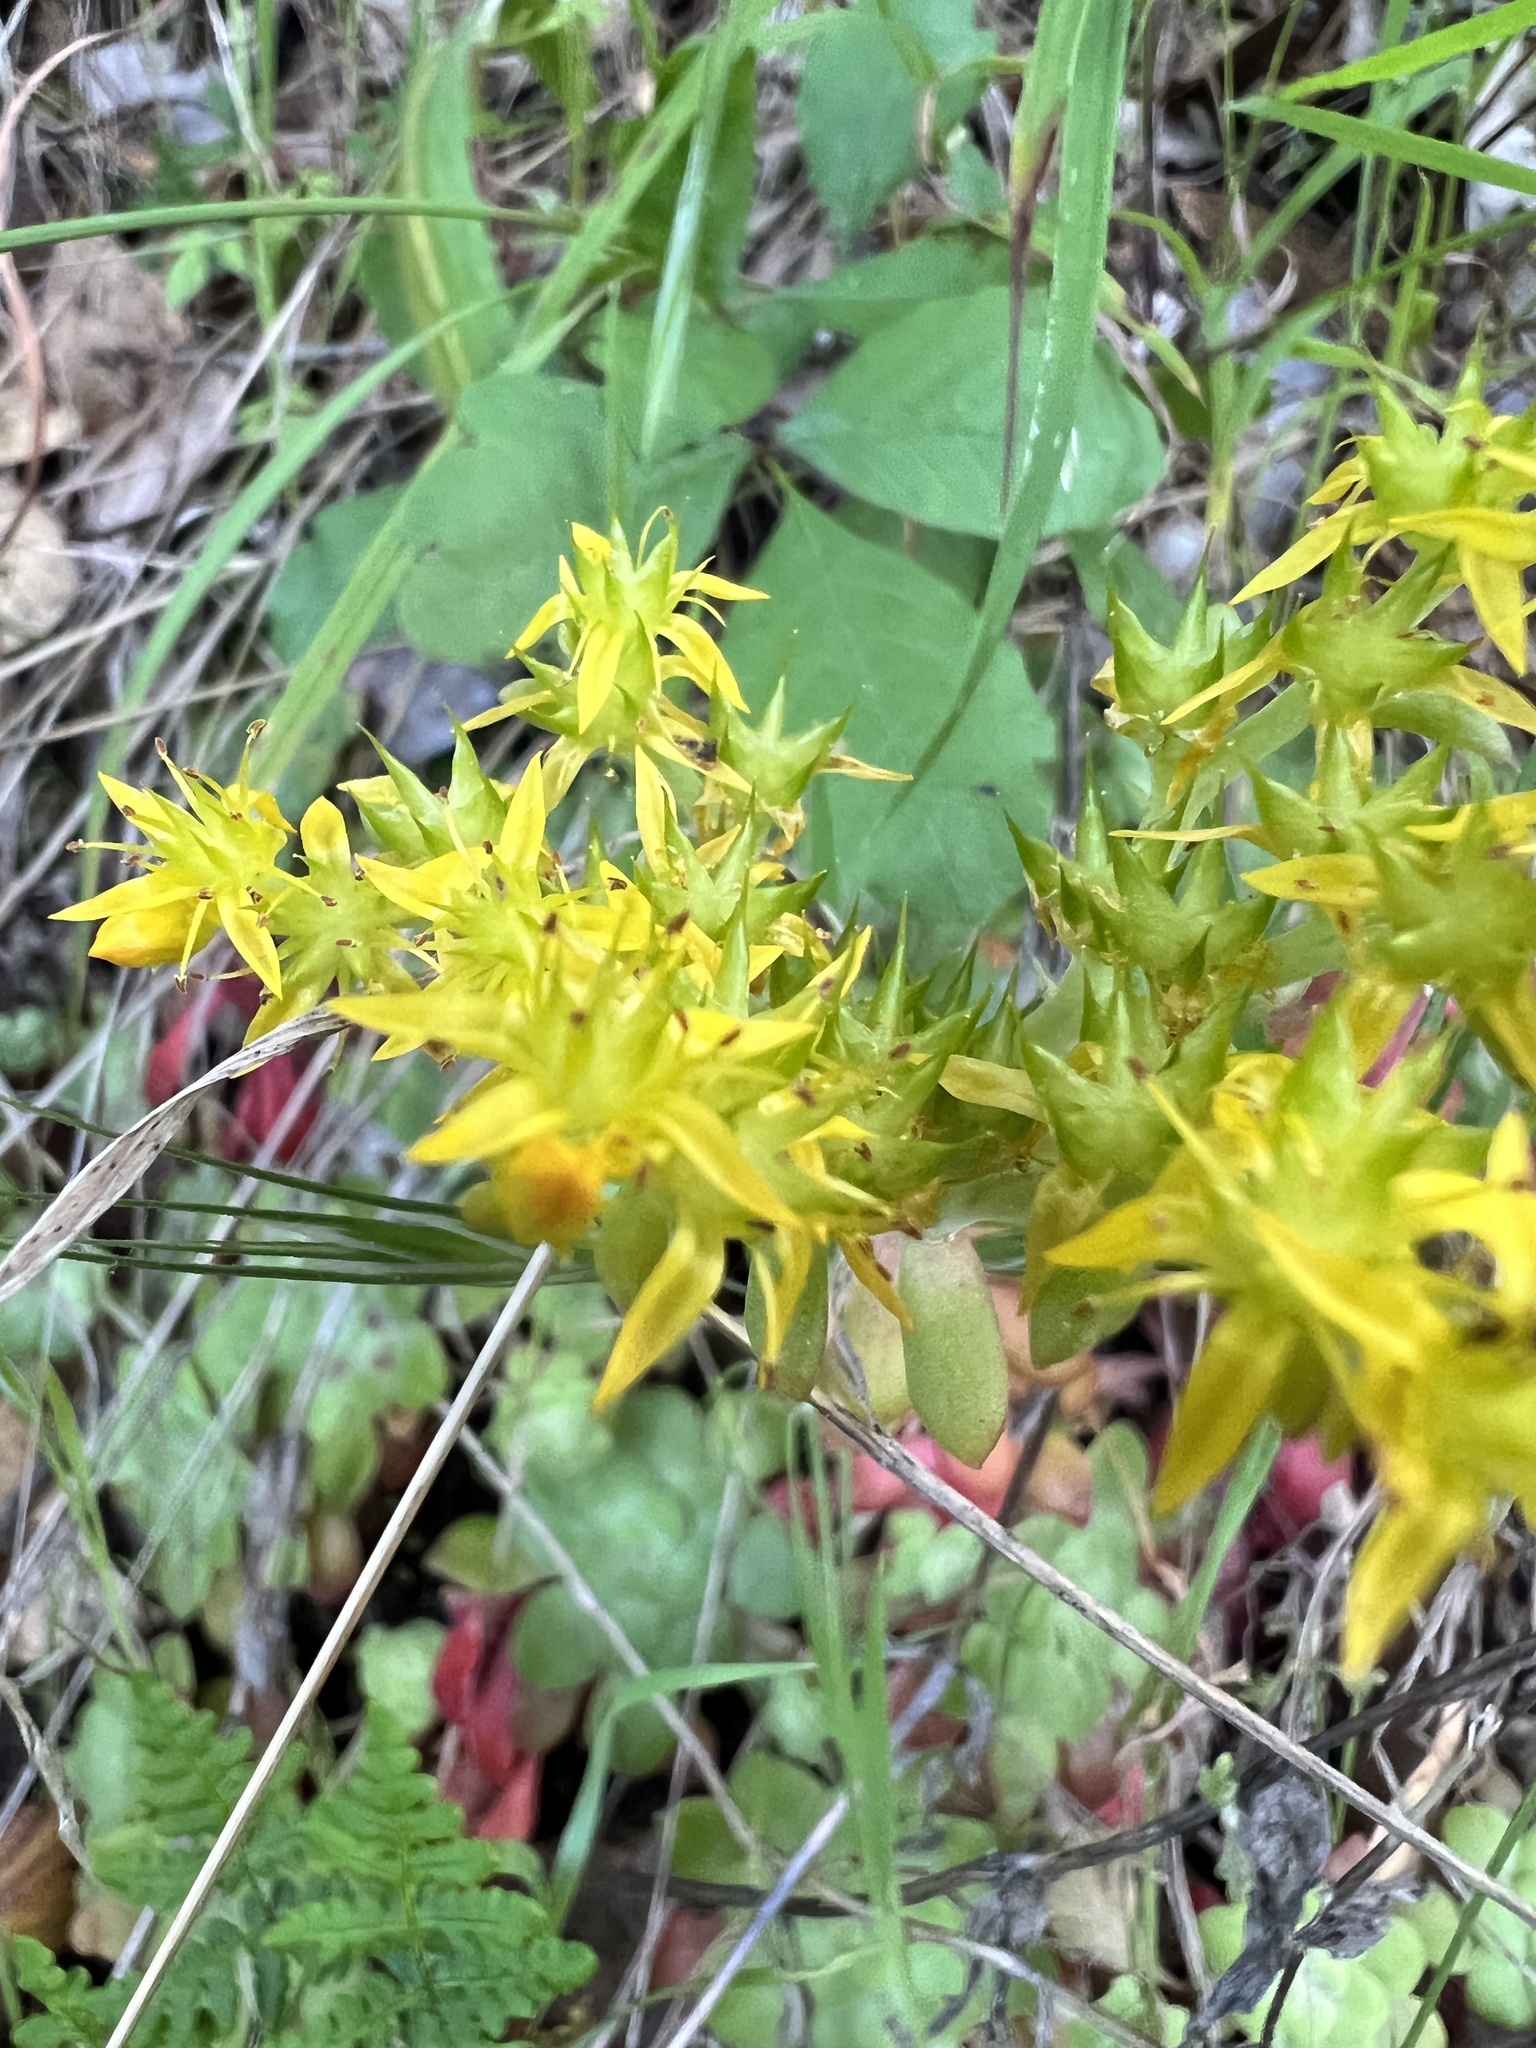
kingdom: Plantae
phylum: Tracheophyta
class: Magnoliopsida
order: Saxifragales
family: Crassulaceae
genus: Sedum
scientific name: Sedum spathulifolium
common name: Colorado stonecrop
